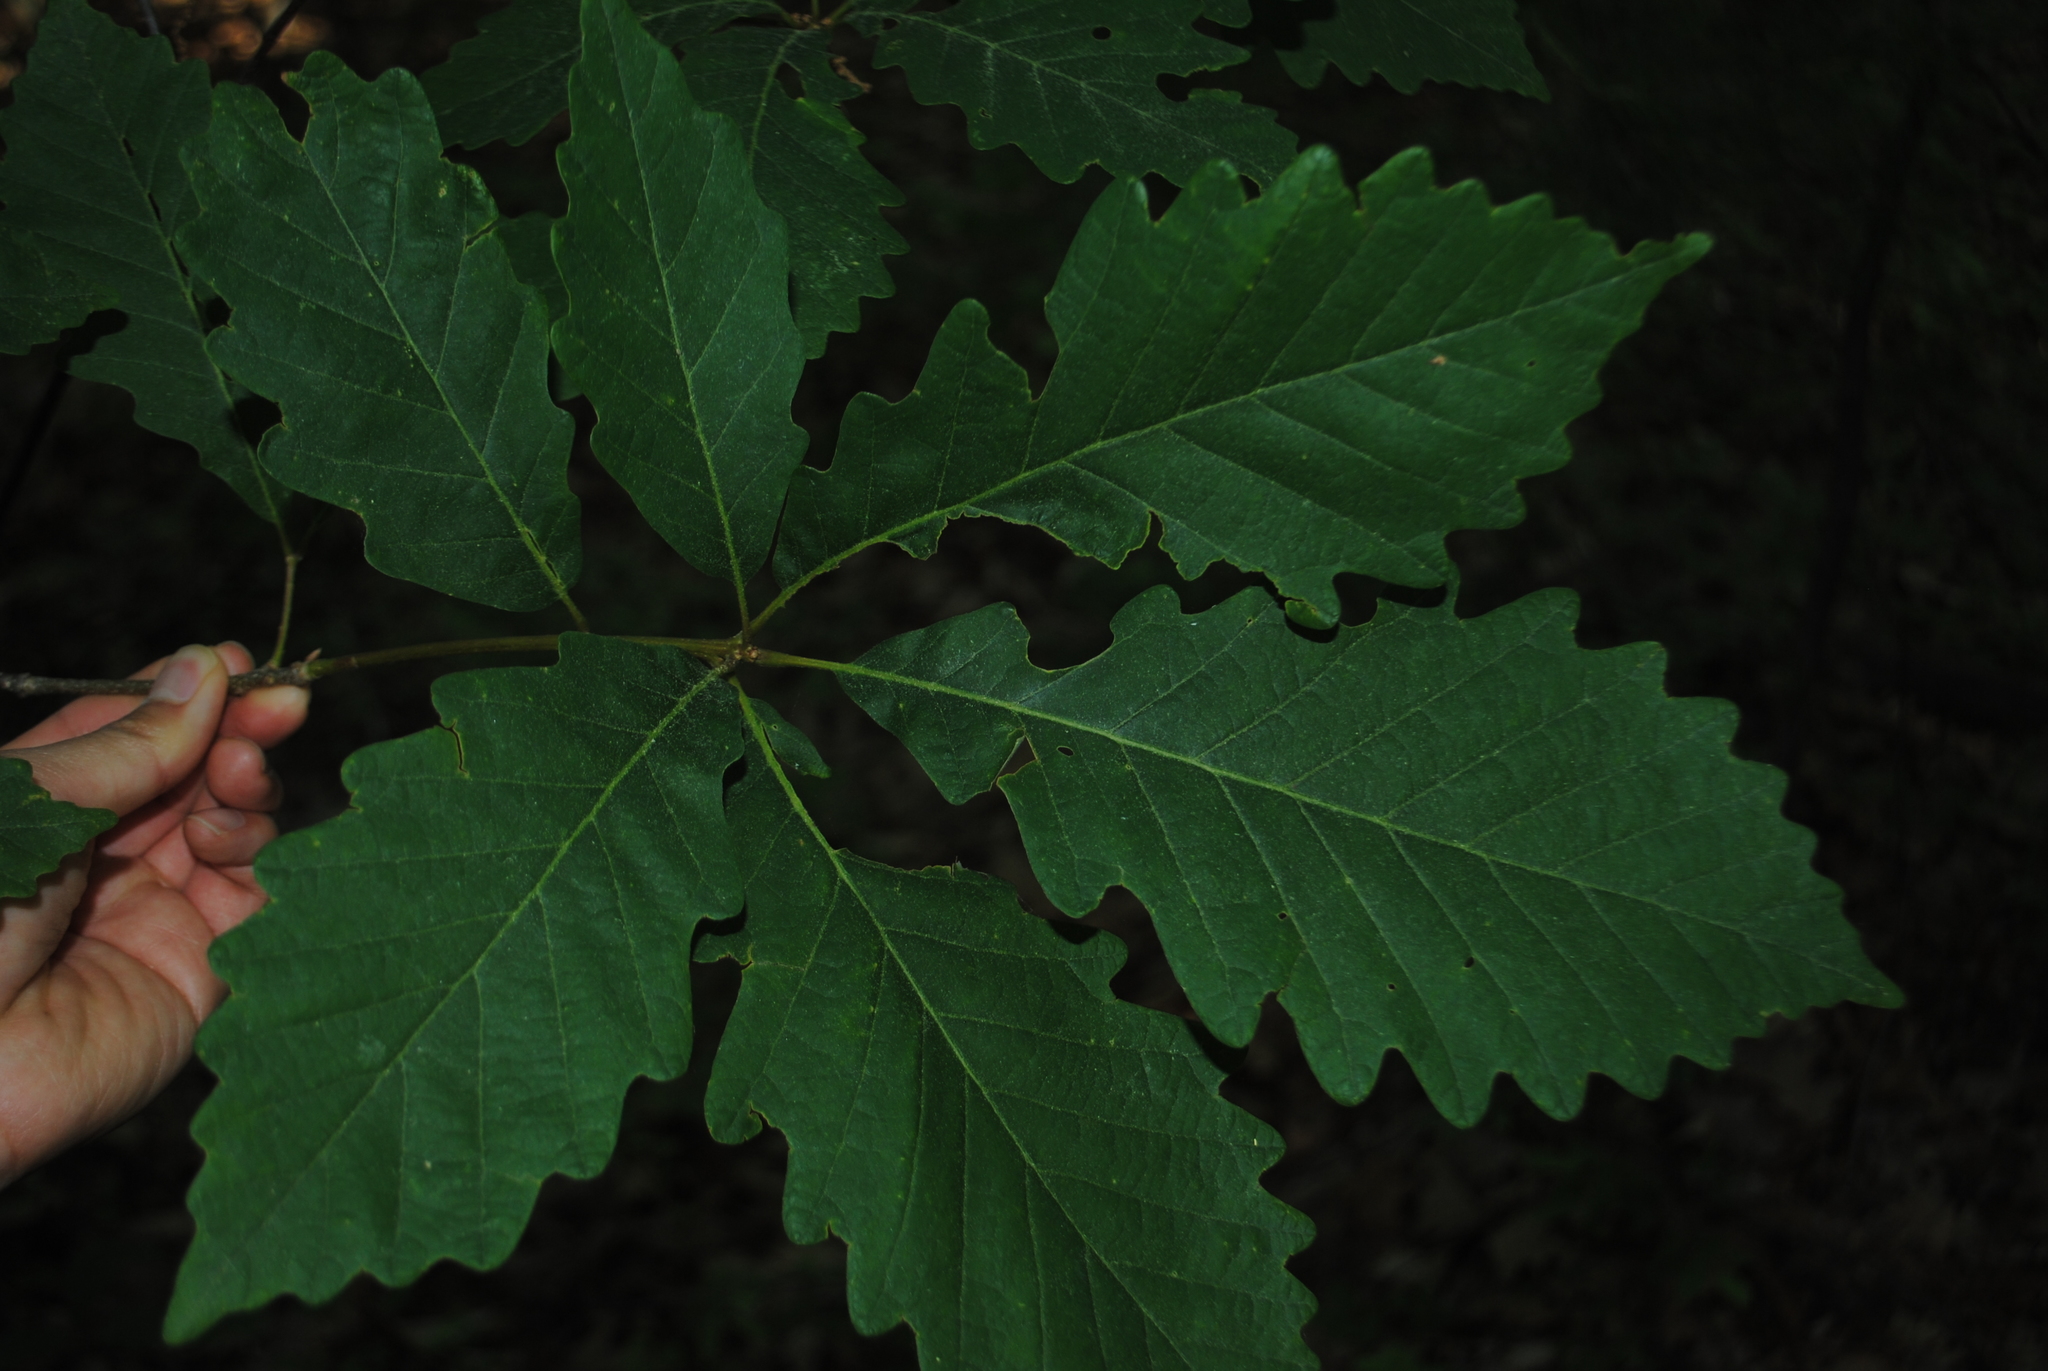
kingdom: Plantae
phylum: Tracheophyta
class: Magnoliopsida
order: Fagales
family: Fagaceae
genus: Quercus
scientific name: Quercus montana
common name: Chestnut oak
